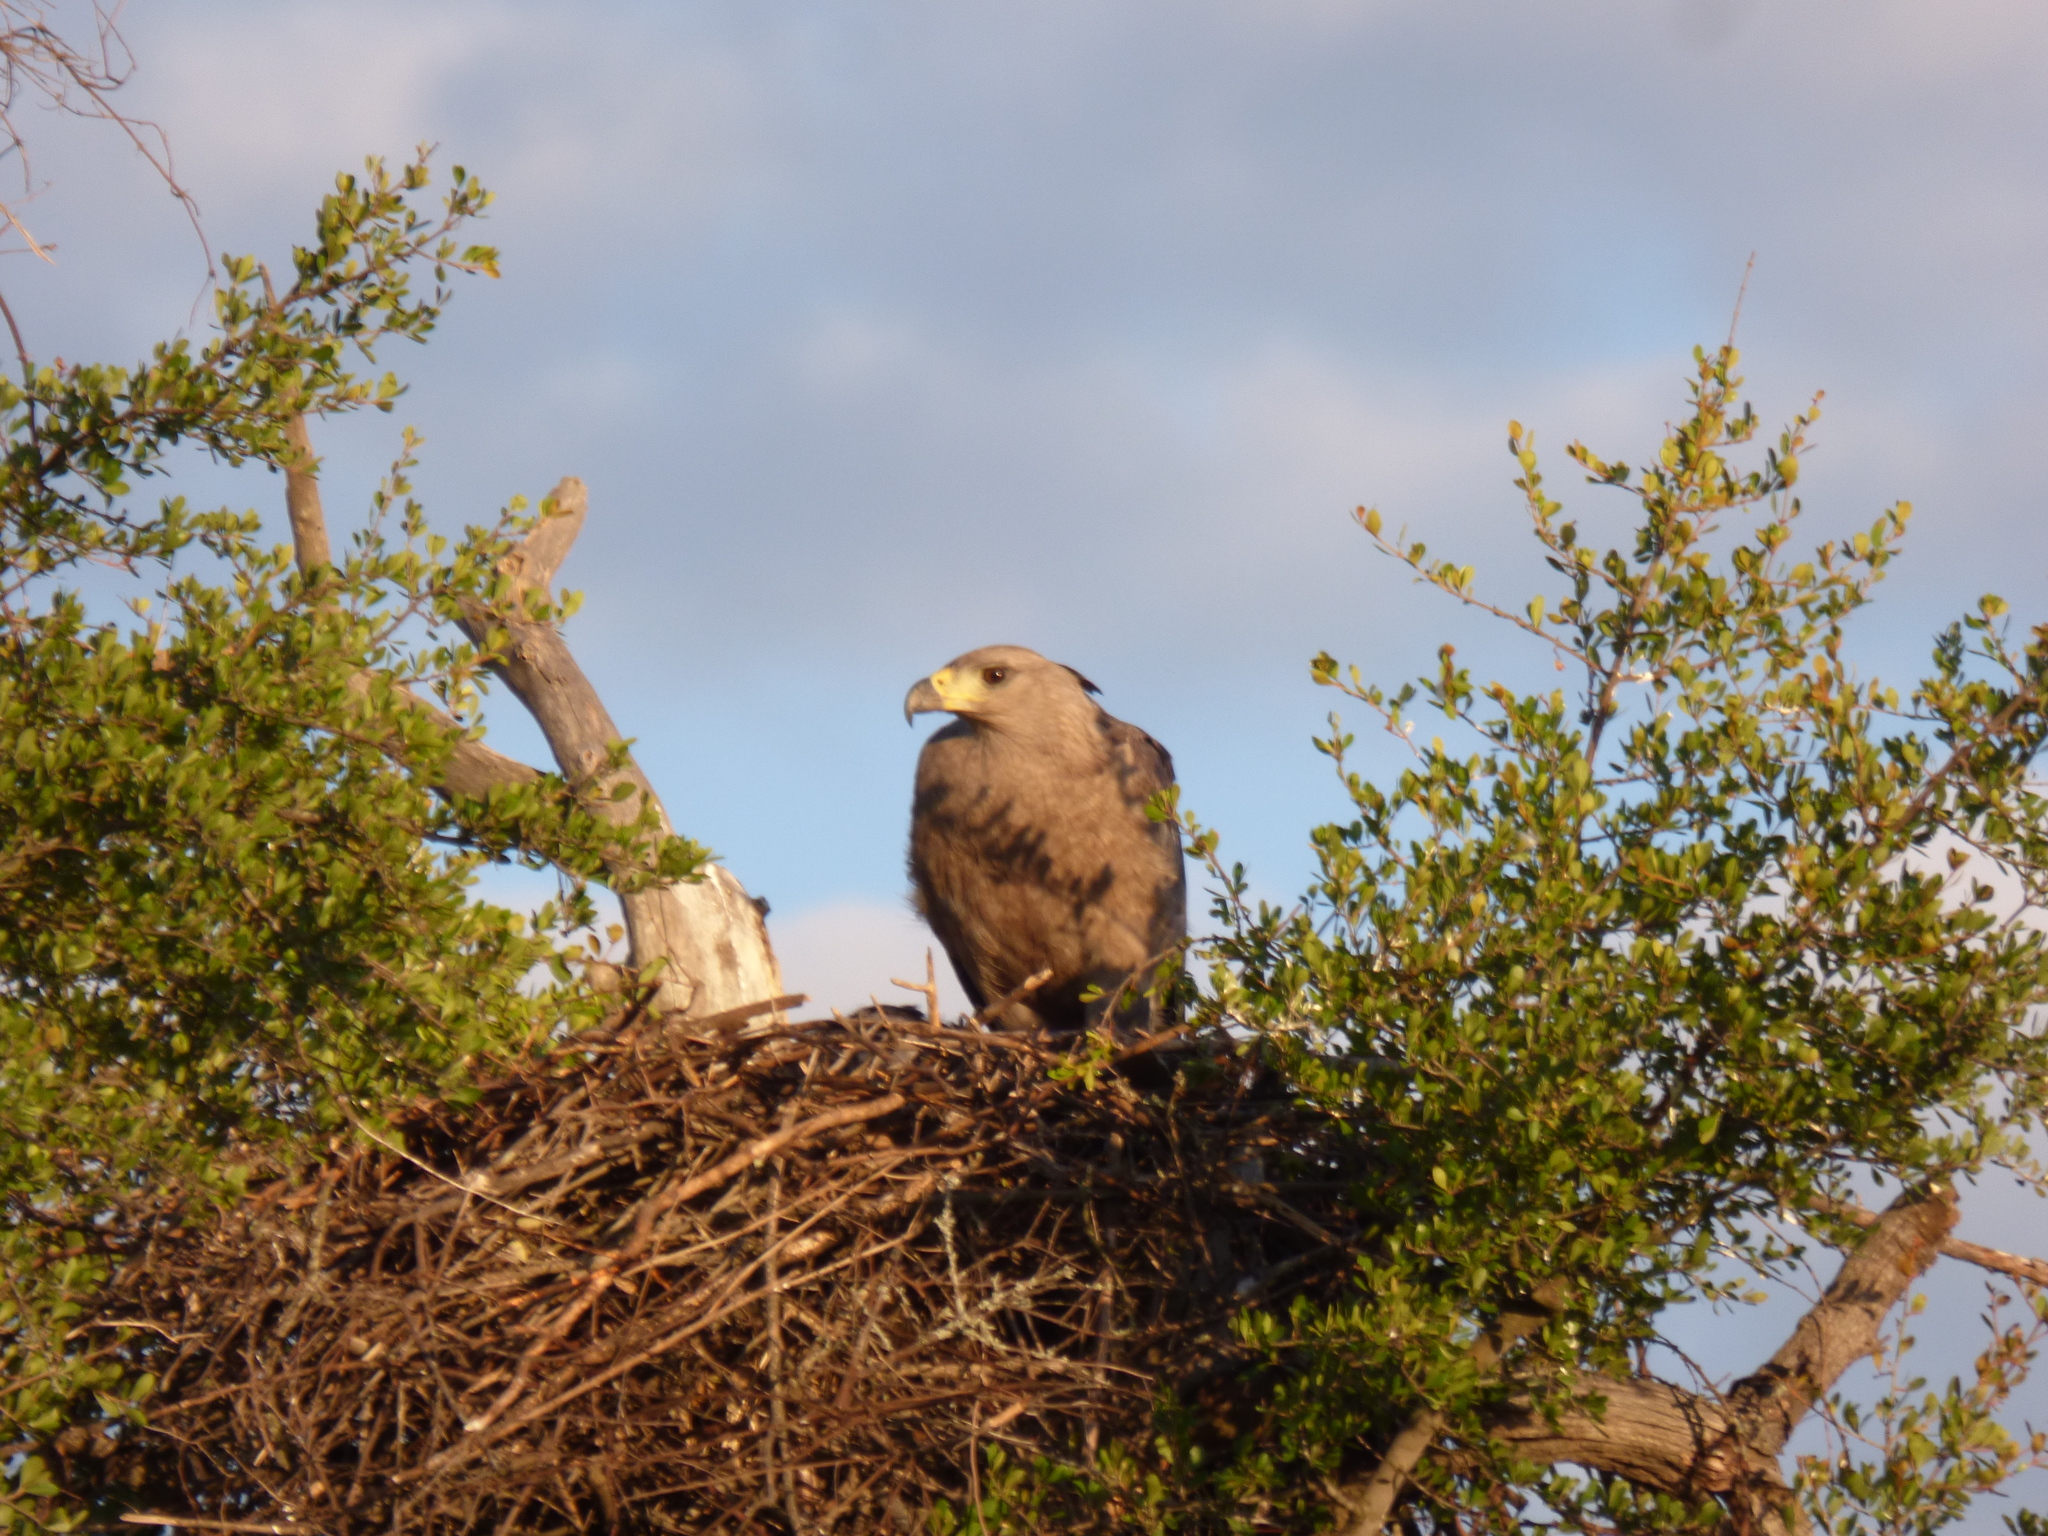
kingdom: Animalia
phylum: Chordata
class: Aves
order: Accipitriformes
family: Accipitridae
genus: Harpyhaliaetus
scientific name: Harpyhaliaetus coronatus
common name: Crowned solitary eagle
